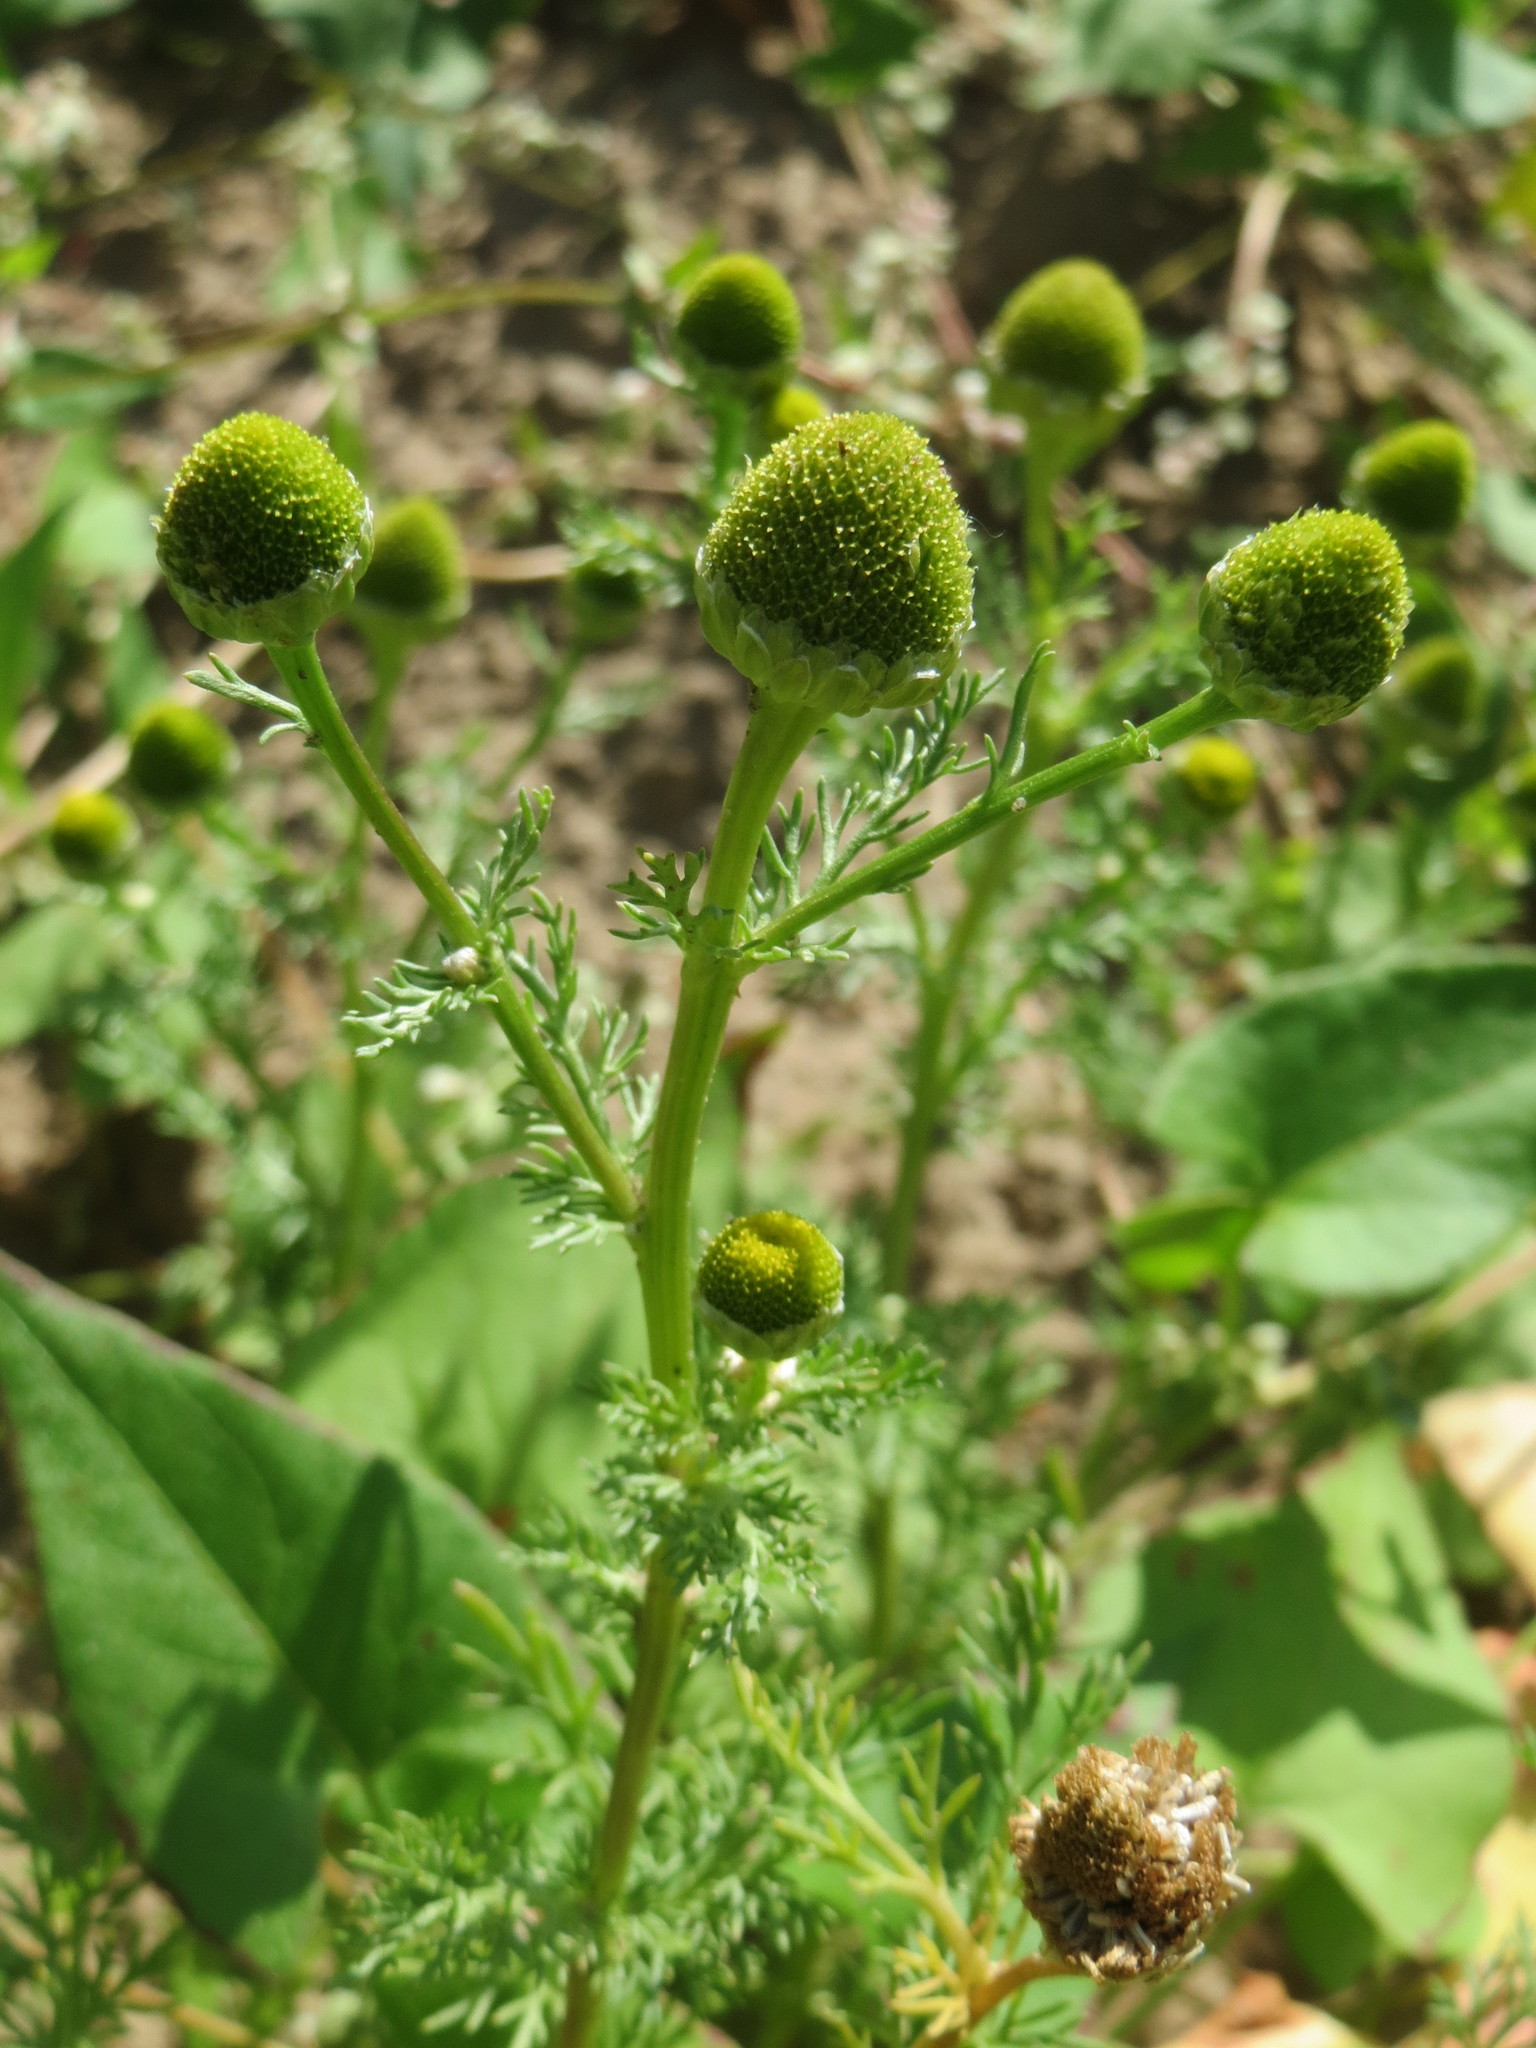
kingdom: Plantae
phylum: Tracheophyta
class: Magnoliopsida
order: Asterales
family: Asteraceae
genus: Matricaria
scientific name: Matricaria discoidea
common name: Disc mayweed
